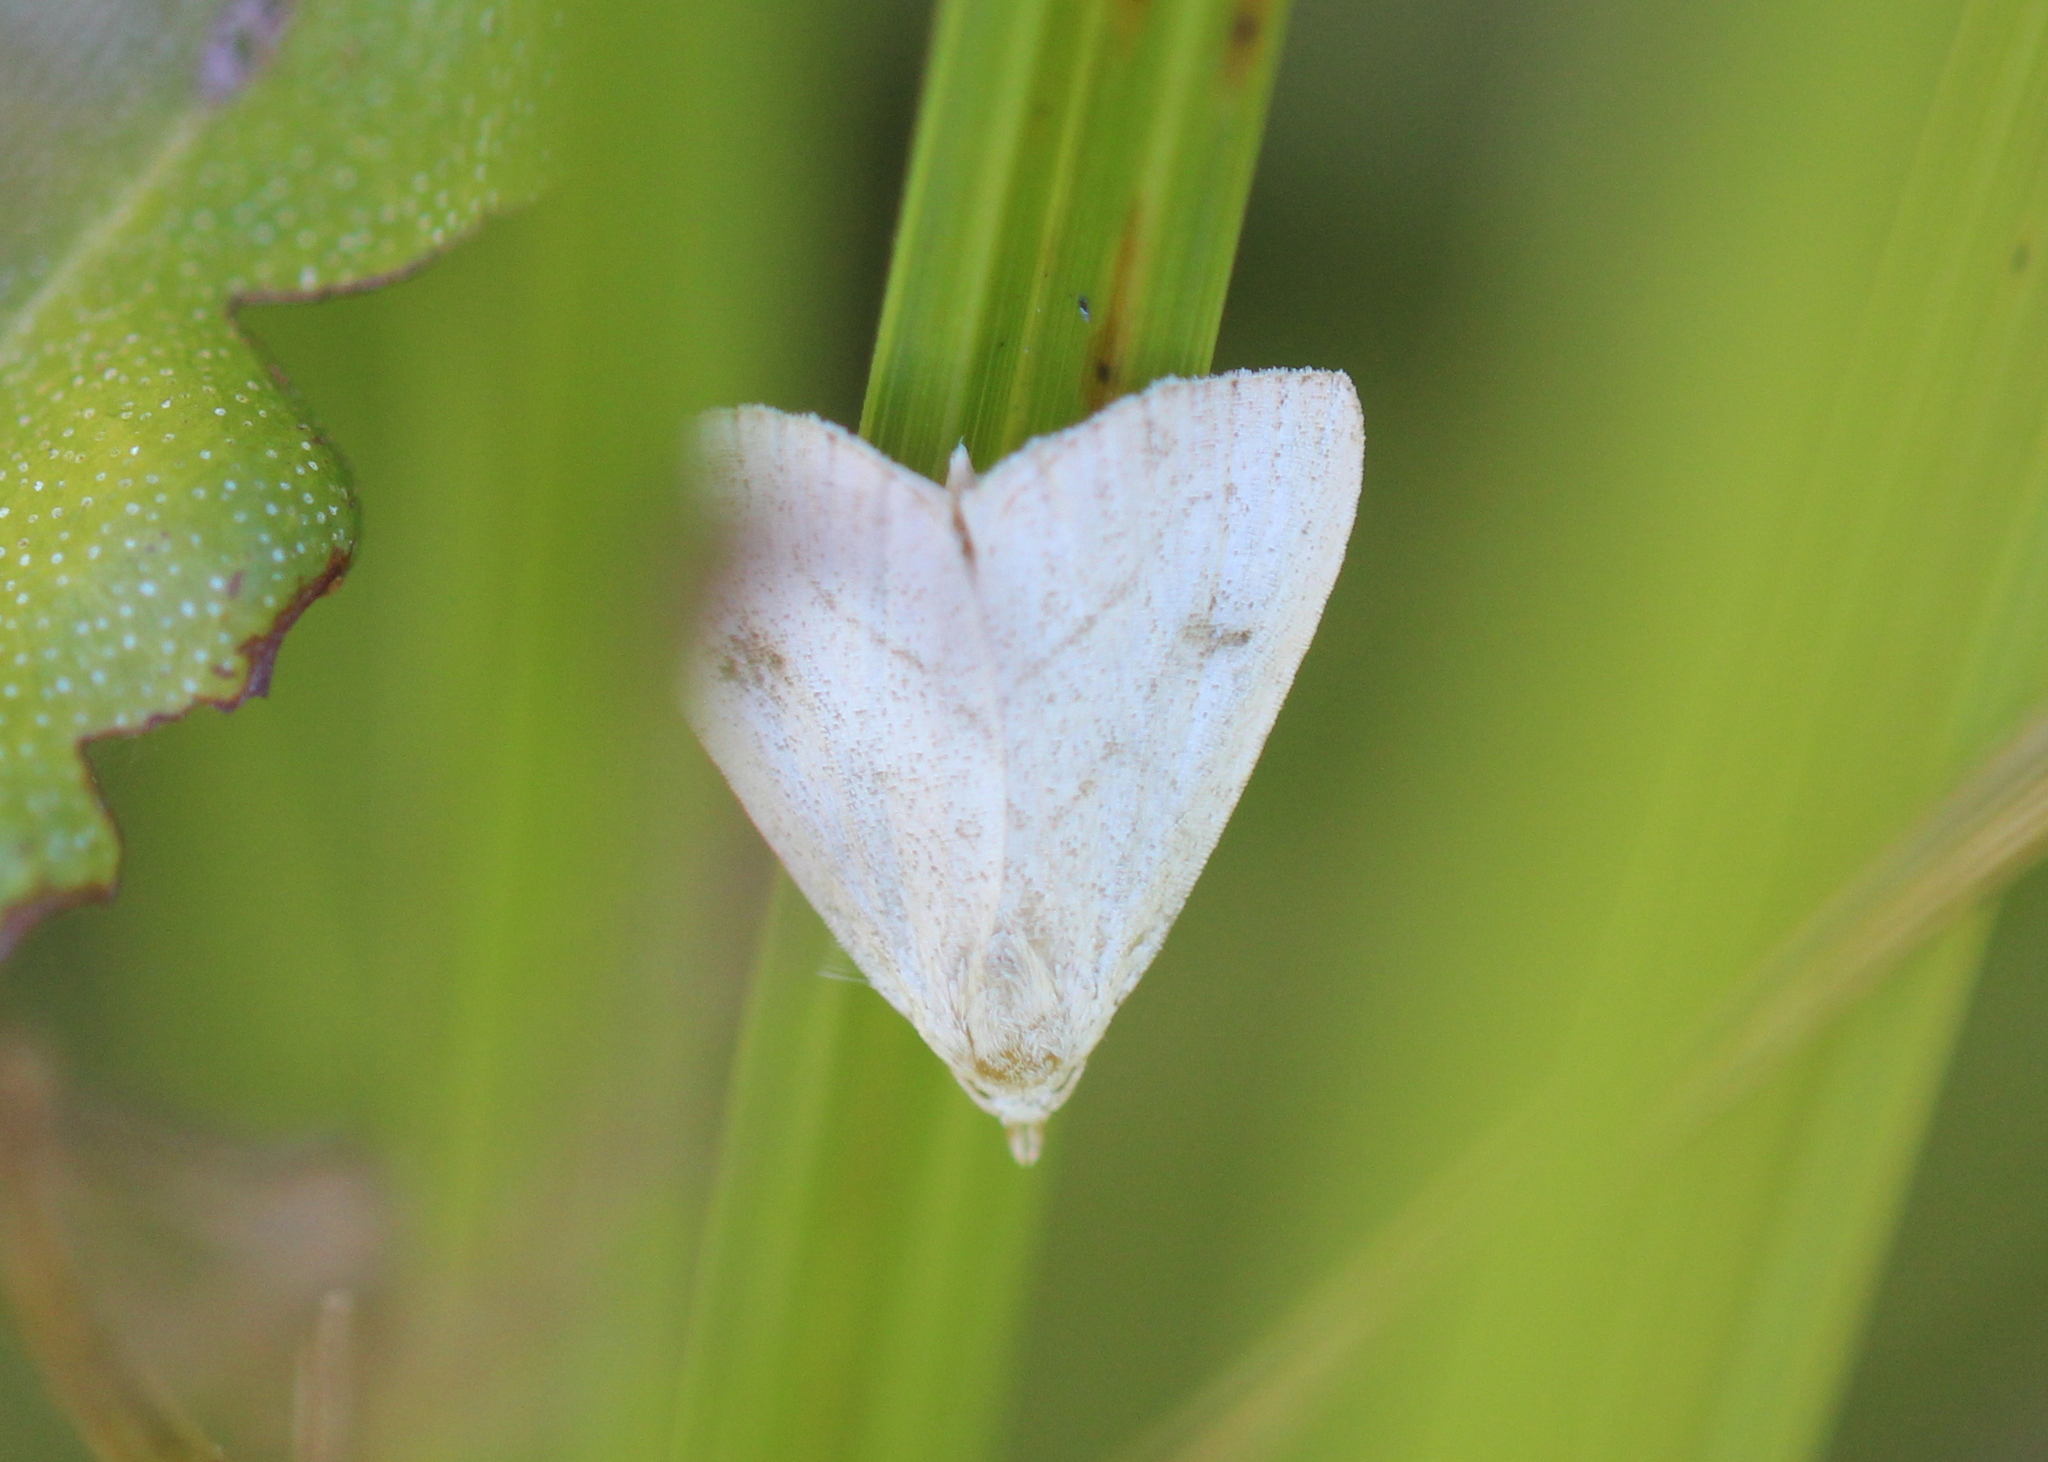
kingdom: Animalia
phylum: Arthropoda
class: Insecta
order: Lepidoptera
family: Erebidae
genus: Rivula
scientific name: Rivula propinqualis
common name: Spotted grass moth
